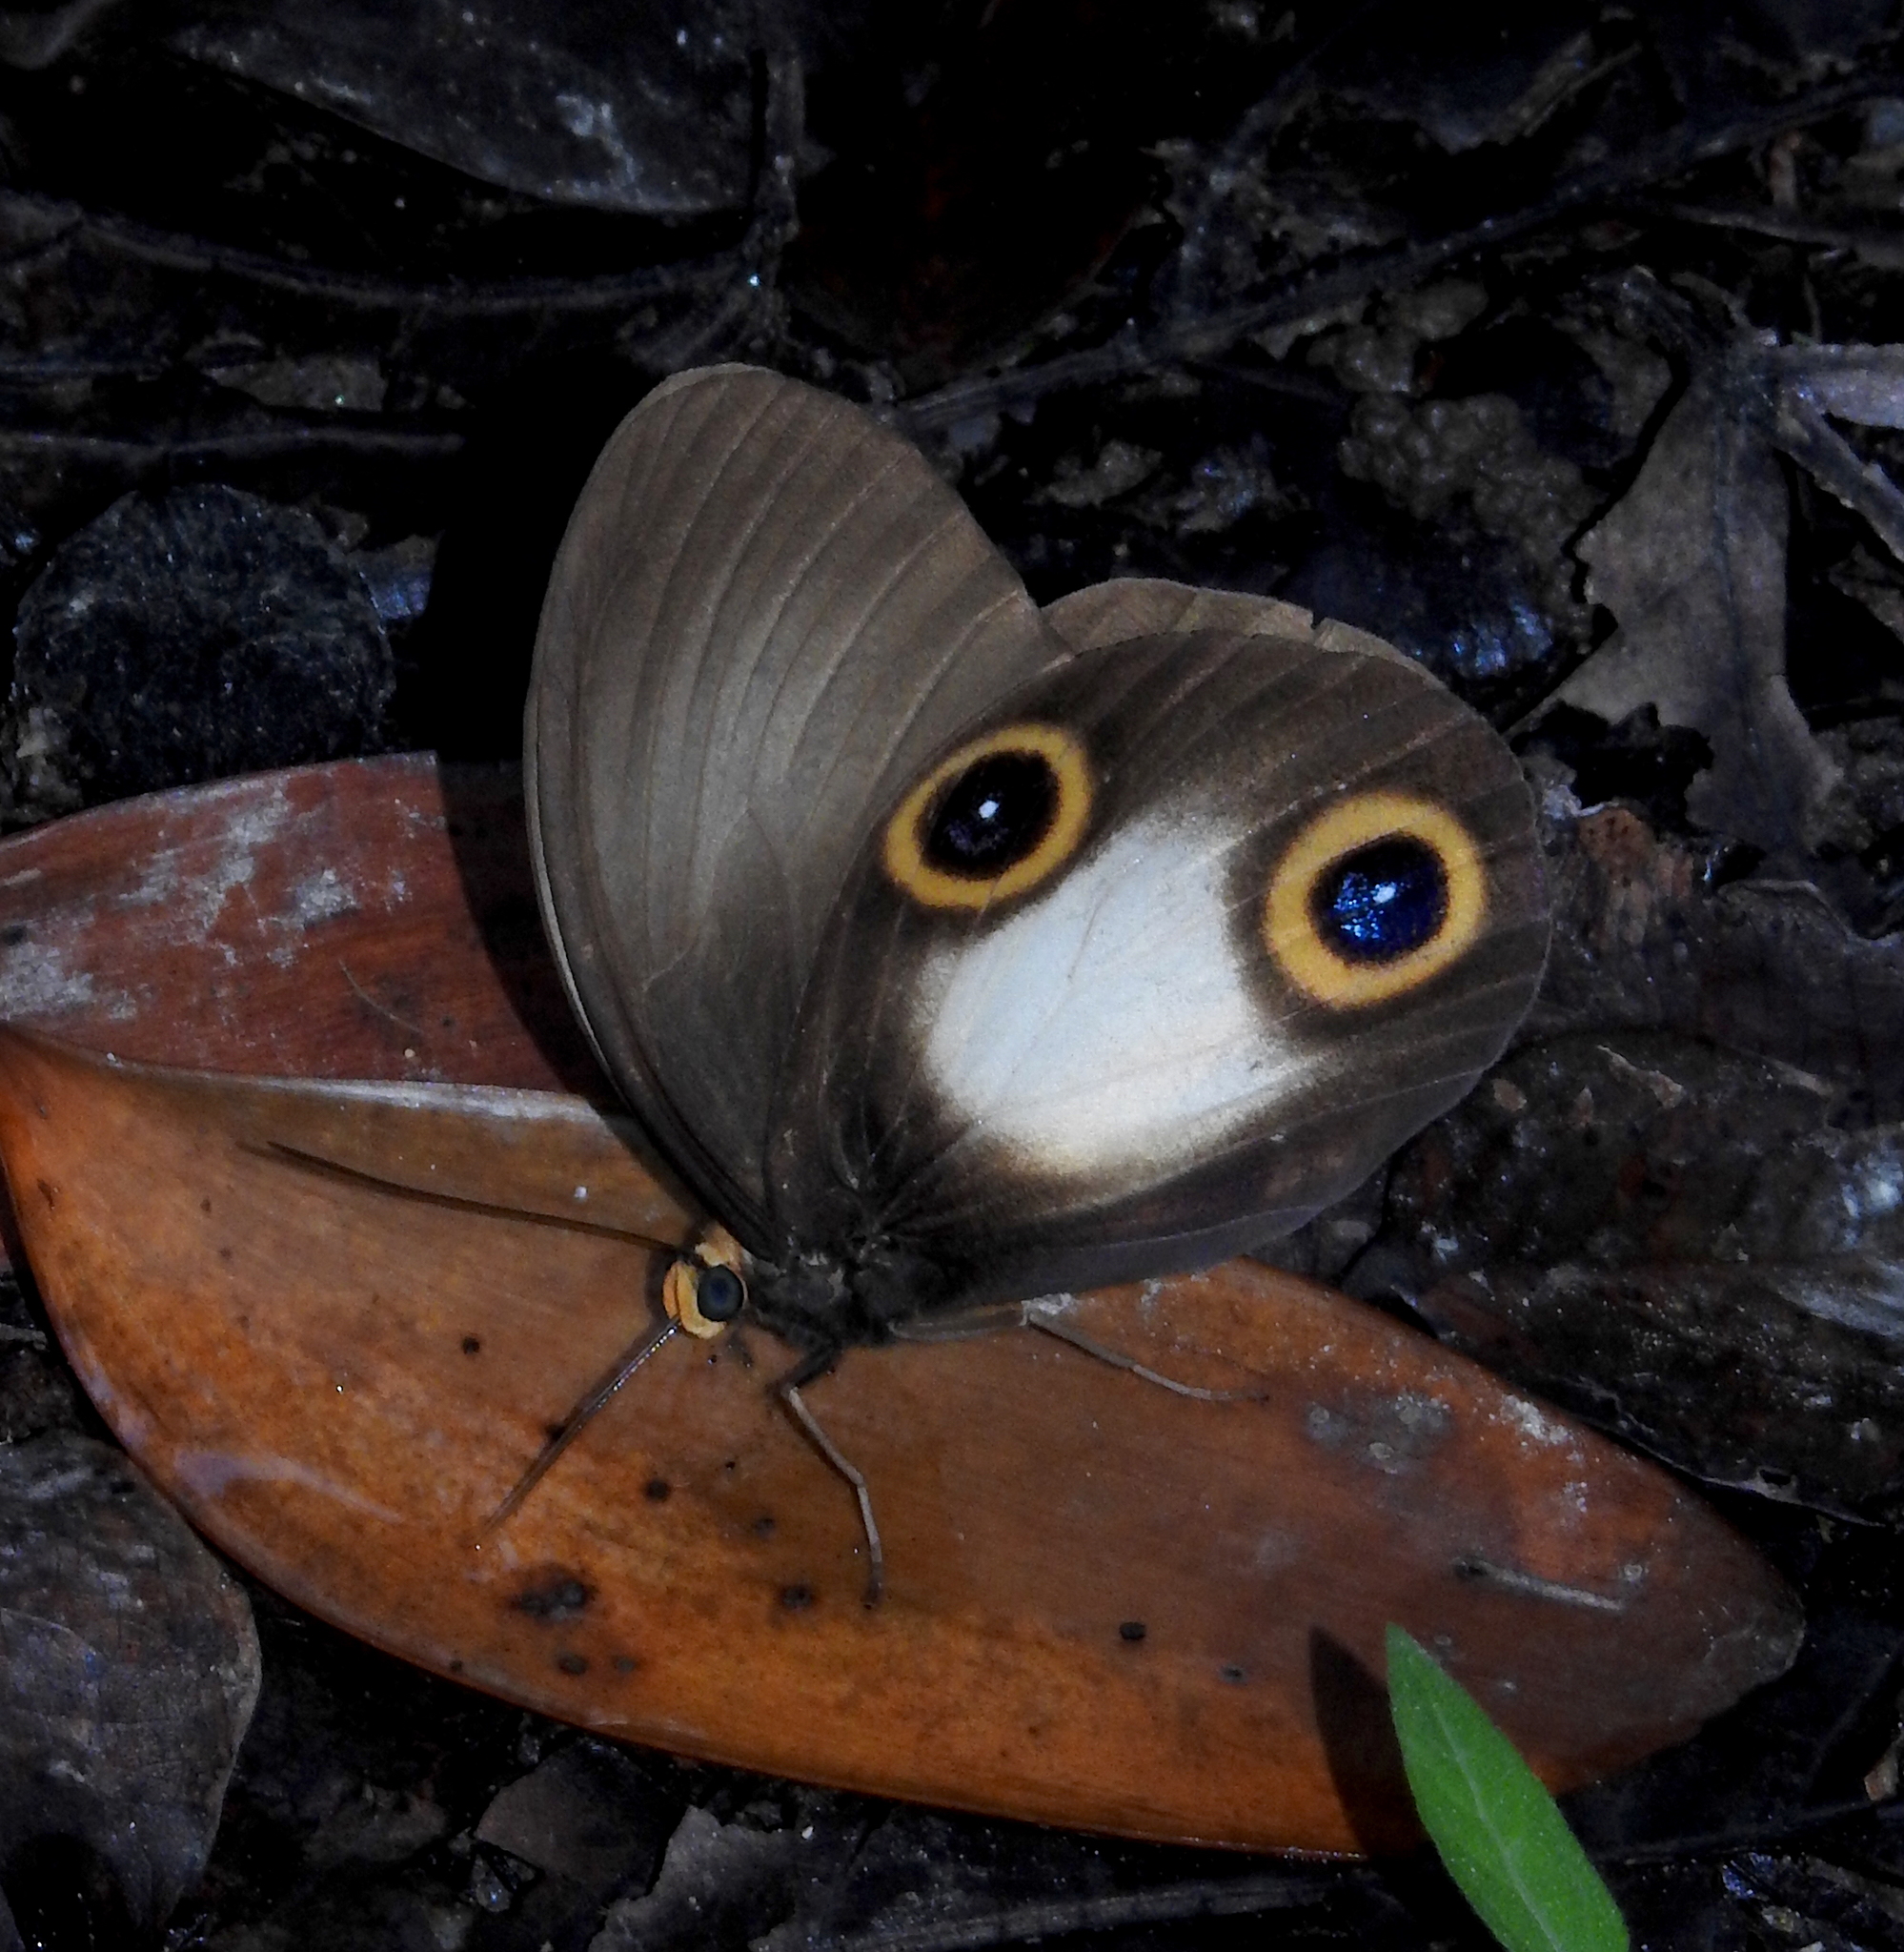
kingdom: Animalia
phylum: Arthropoda
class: Insecta
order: Lepidoptera
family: Nymphalidae
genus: Taenaris
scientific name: Taenaris catops
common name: Silky owl
